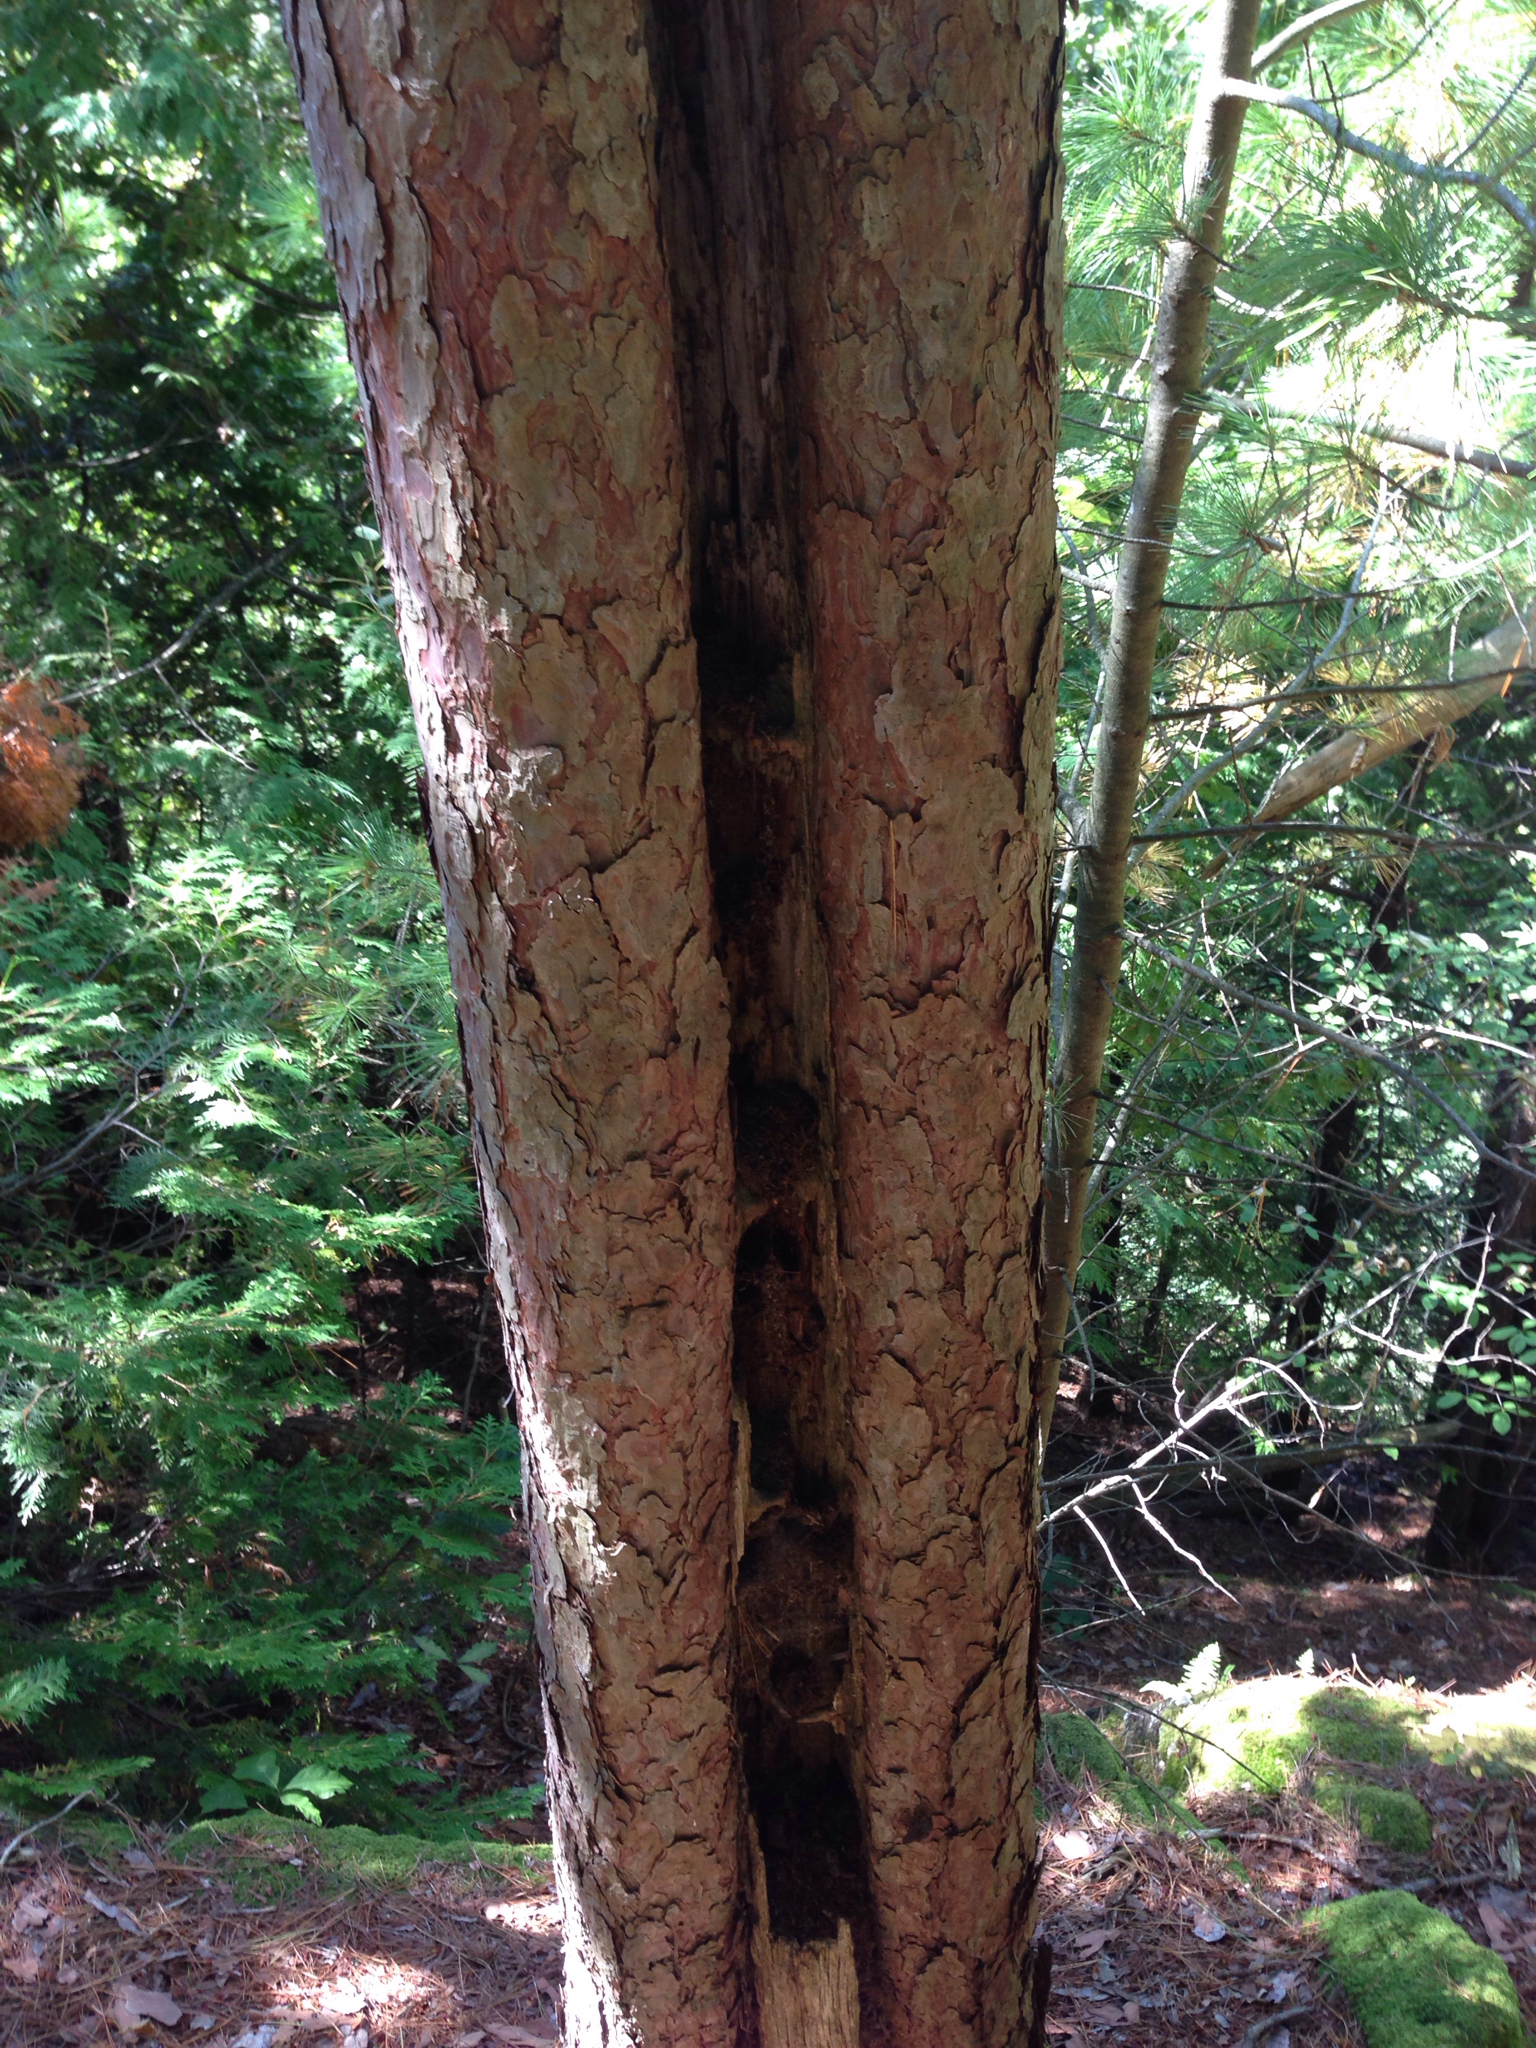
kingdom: Plantae
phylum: Tracheophyta
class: Pinopsida
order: Pinales
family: Pinaceae
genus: Pinus
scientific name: Pinus resinosa
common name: Norway pine
